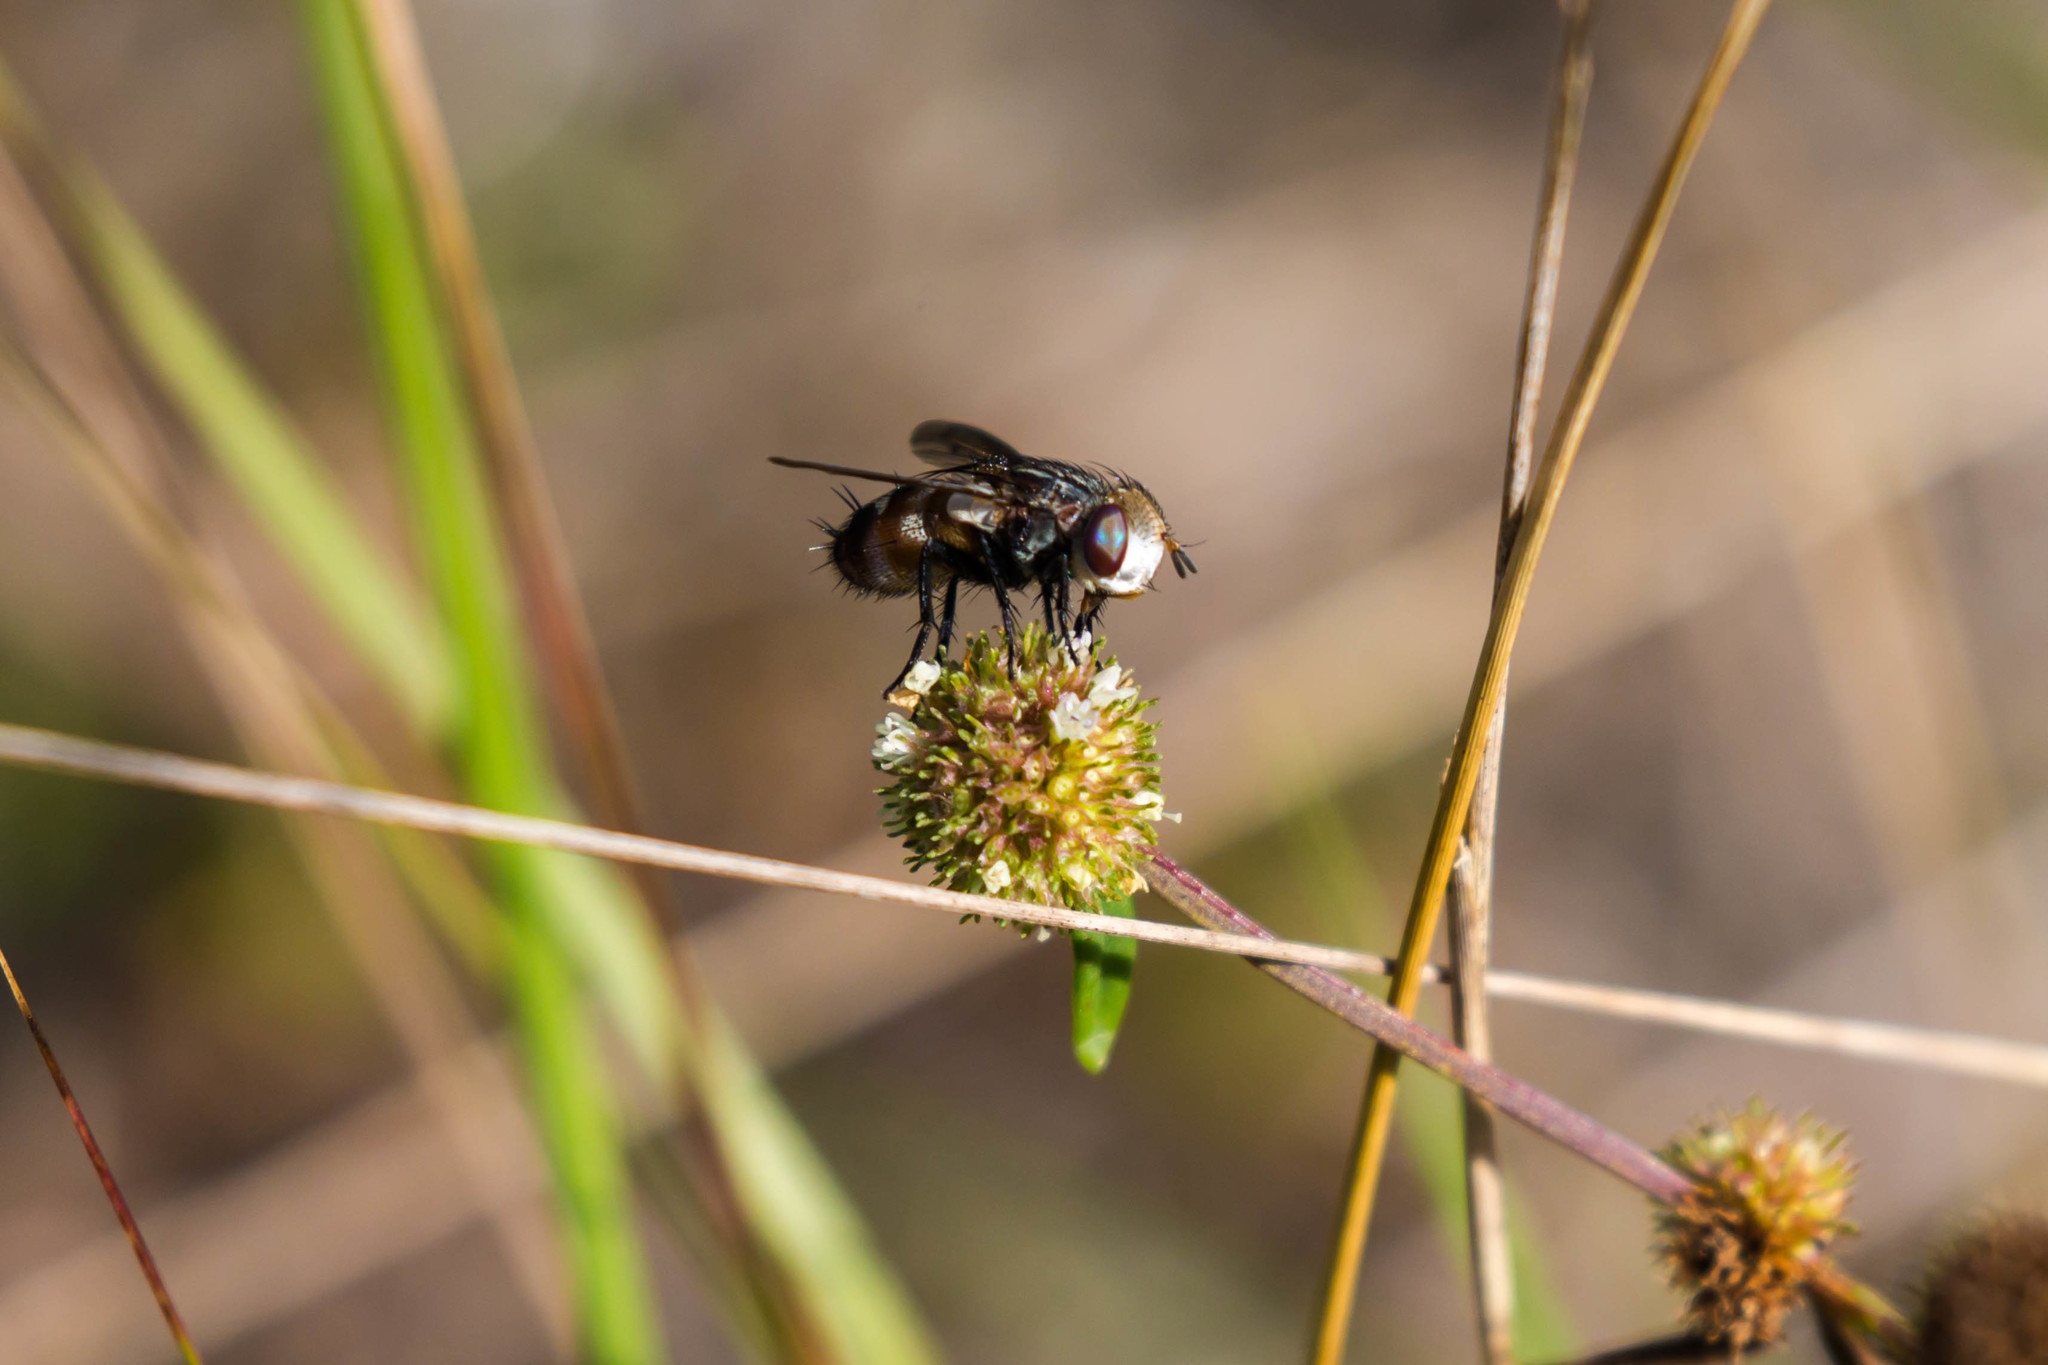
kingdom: Animalia
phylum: Arthropoda
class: Insecta
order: Diptera
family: Tachinidae
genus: Gonia
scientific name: Gonia crassicornis
